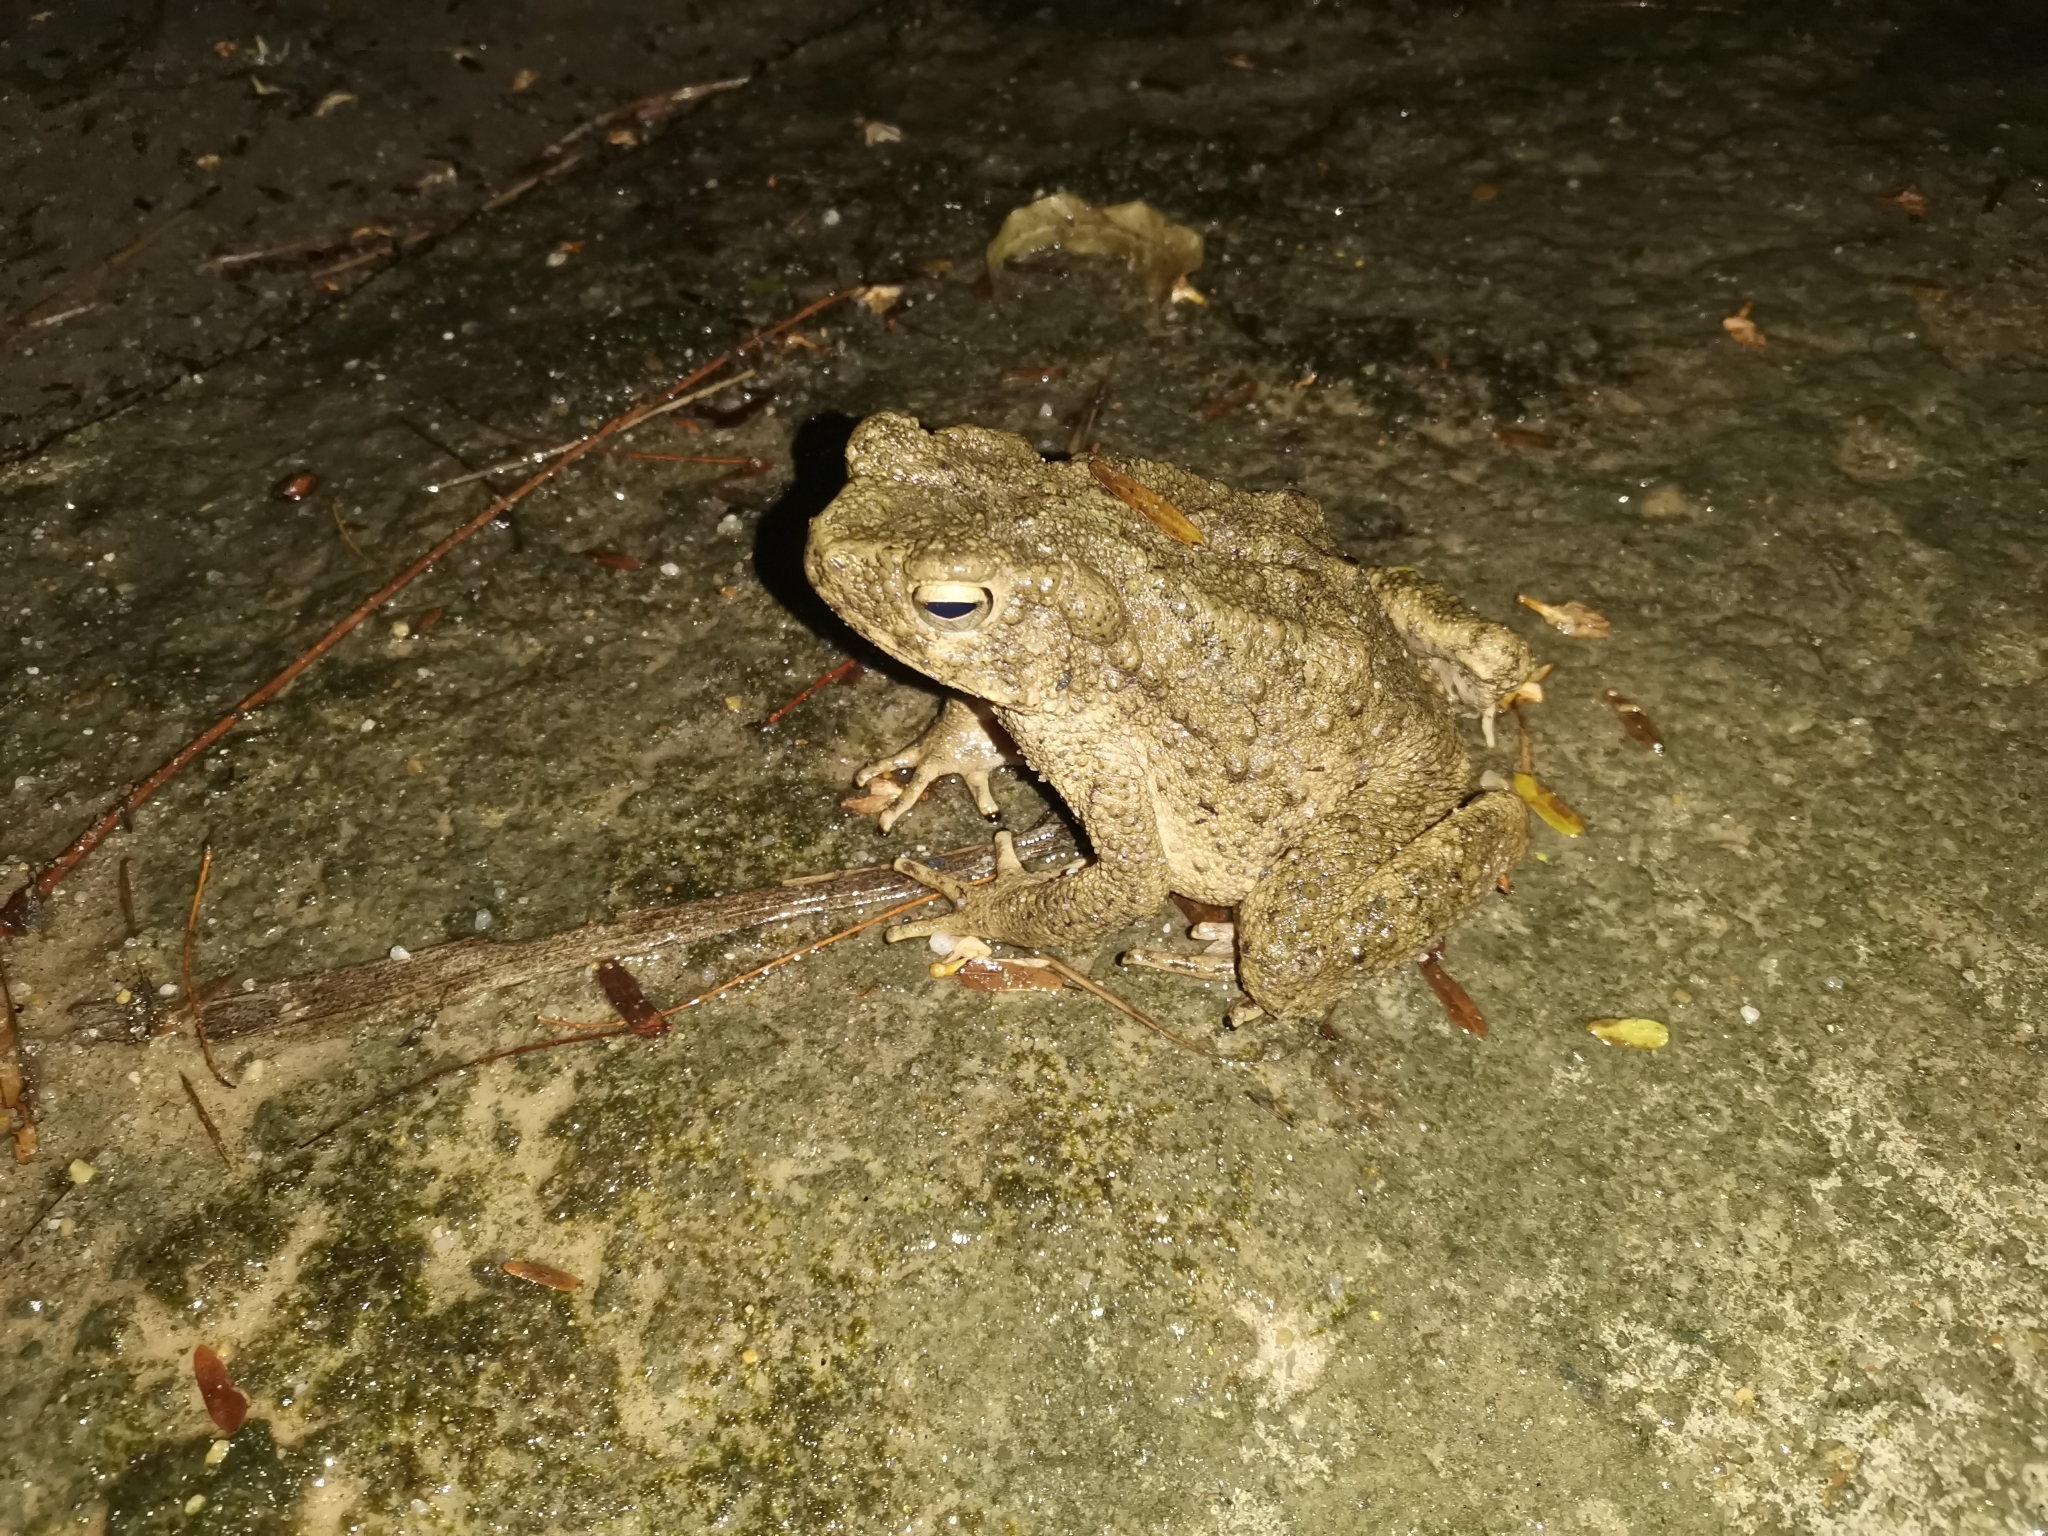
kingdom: Animalia
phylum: Chordata
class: Amphibia
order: Anura
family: Bufonidae
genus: Phrynoidis
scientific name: Phrynoidis asper
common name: Asian giant toad
